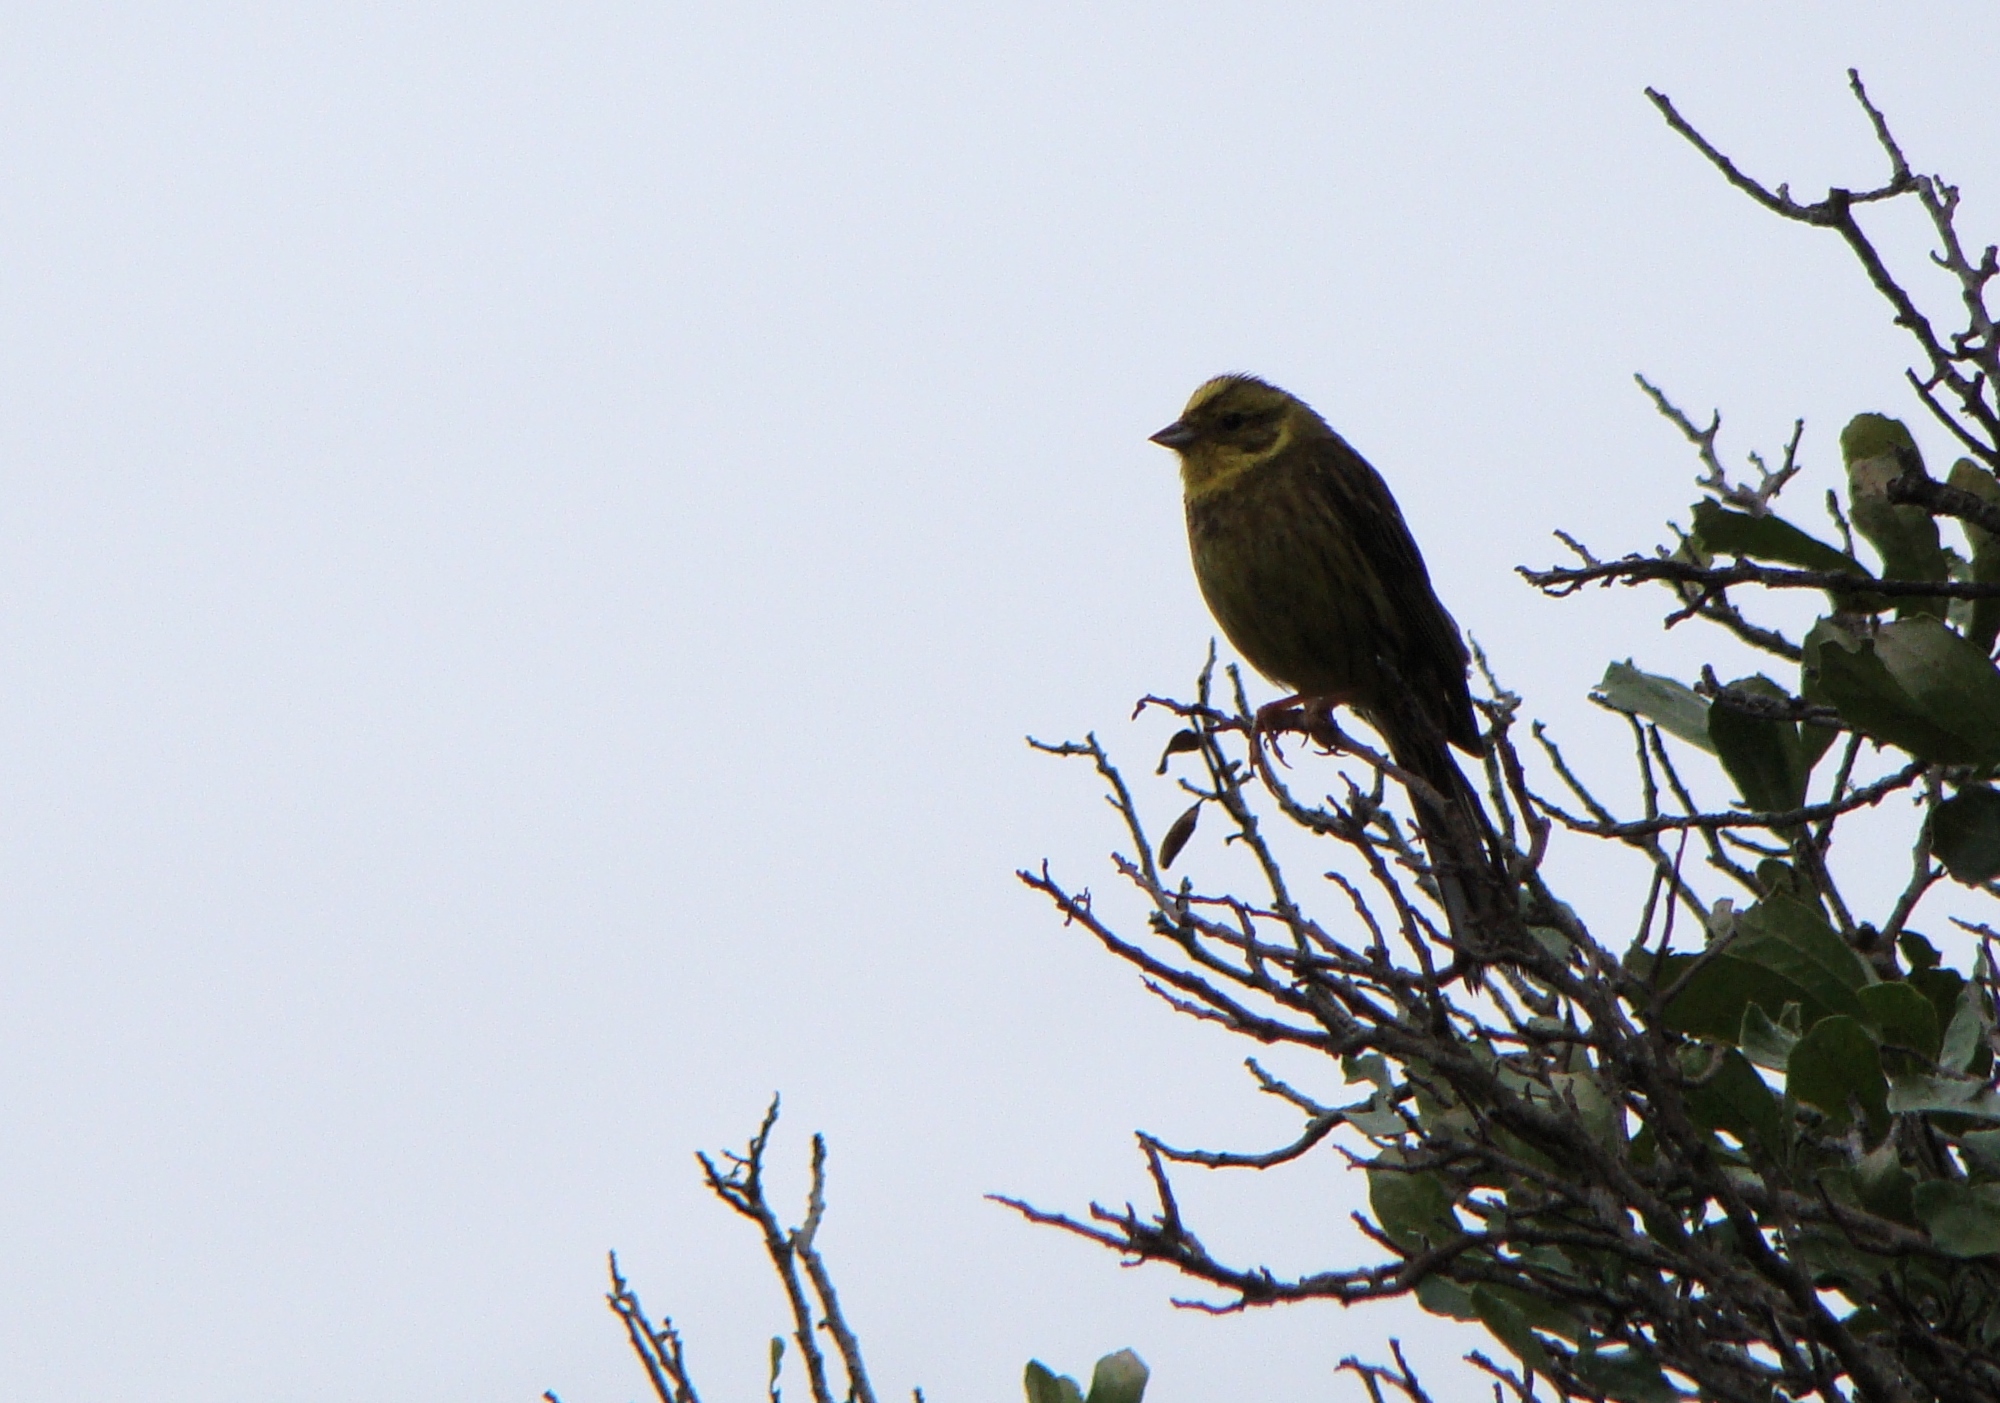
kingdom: Animalia
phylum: Chordata
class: Aves
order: Passeriformes
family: Emberizidae
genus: Emberiza
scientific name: Emberiza citrinella
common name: Yellowhammer
